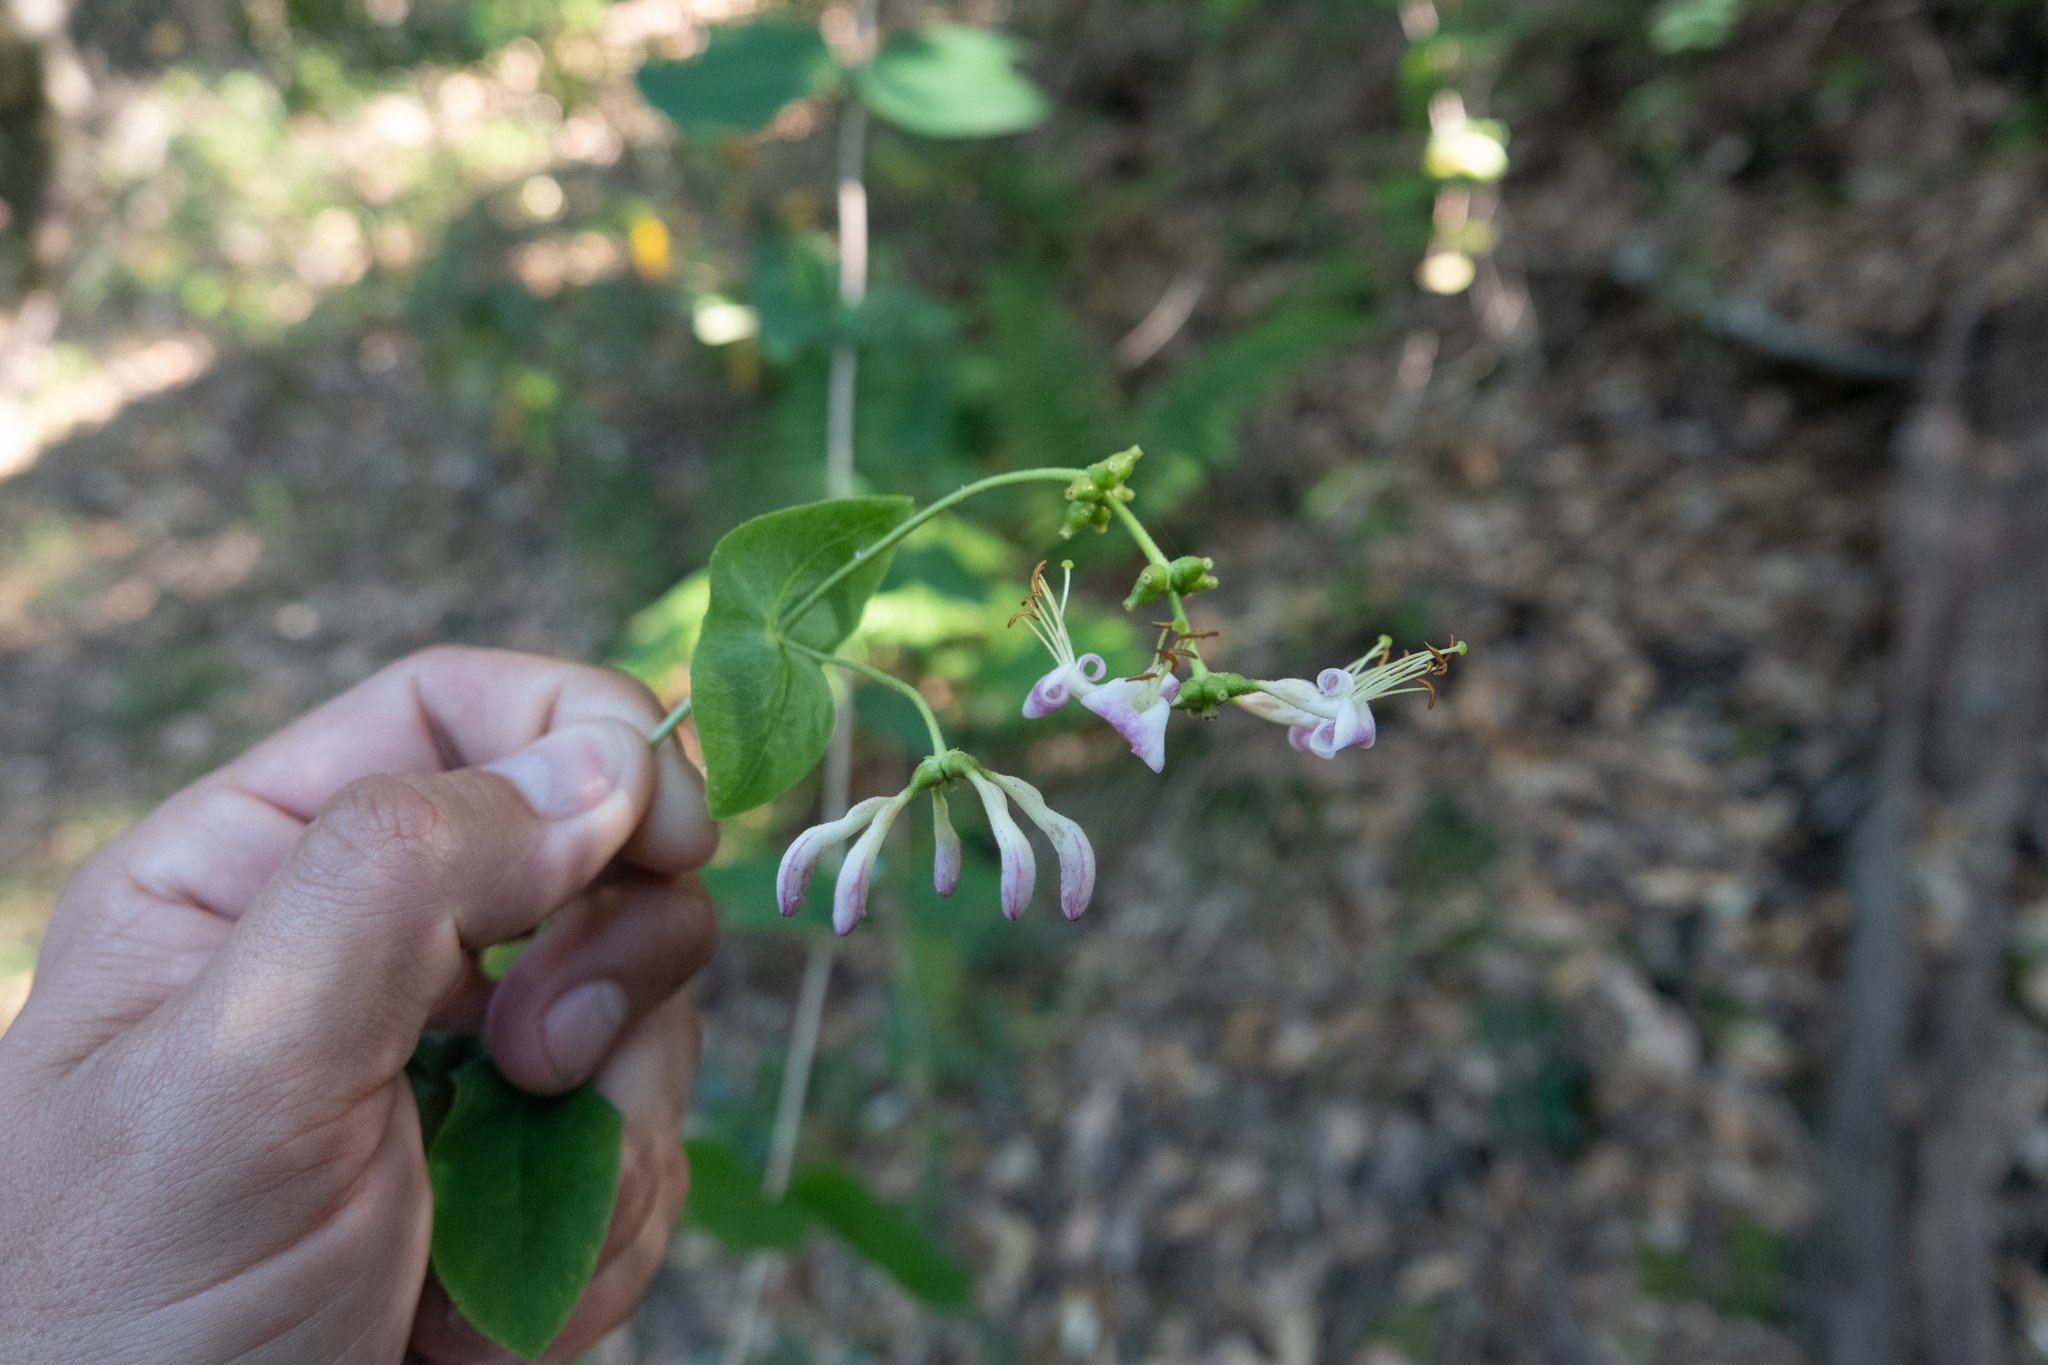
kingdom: Plantae
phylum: Tracheophyta
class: Magnoliopsida
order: Dipsacales
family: Caprifoliaceae
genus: Lonicera
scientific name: Lonicera hispidula
